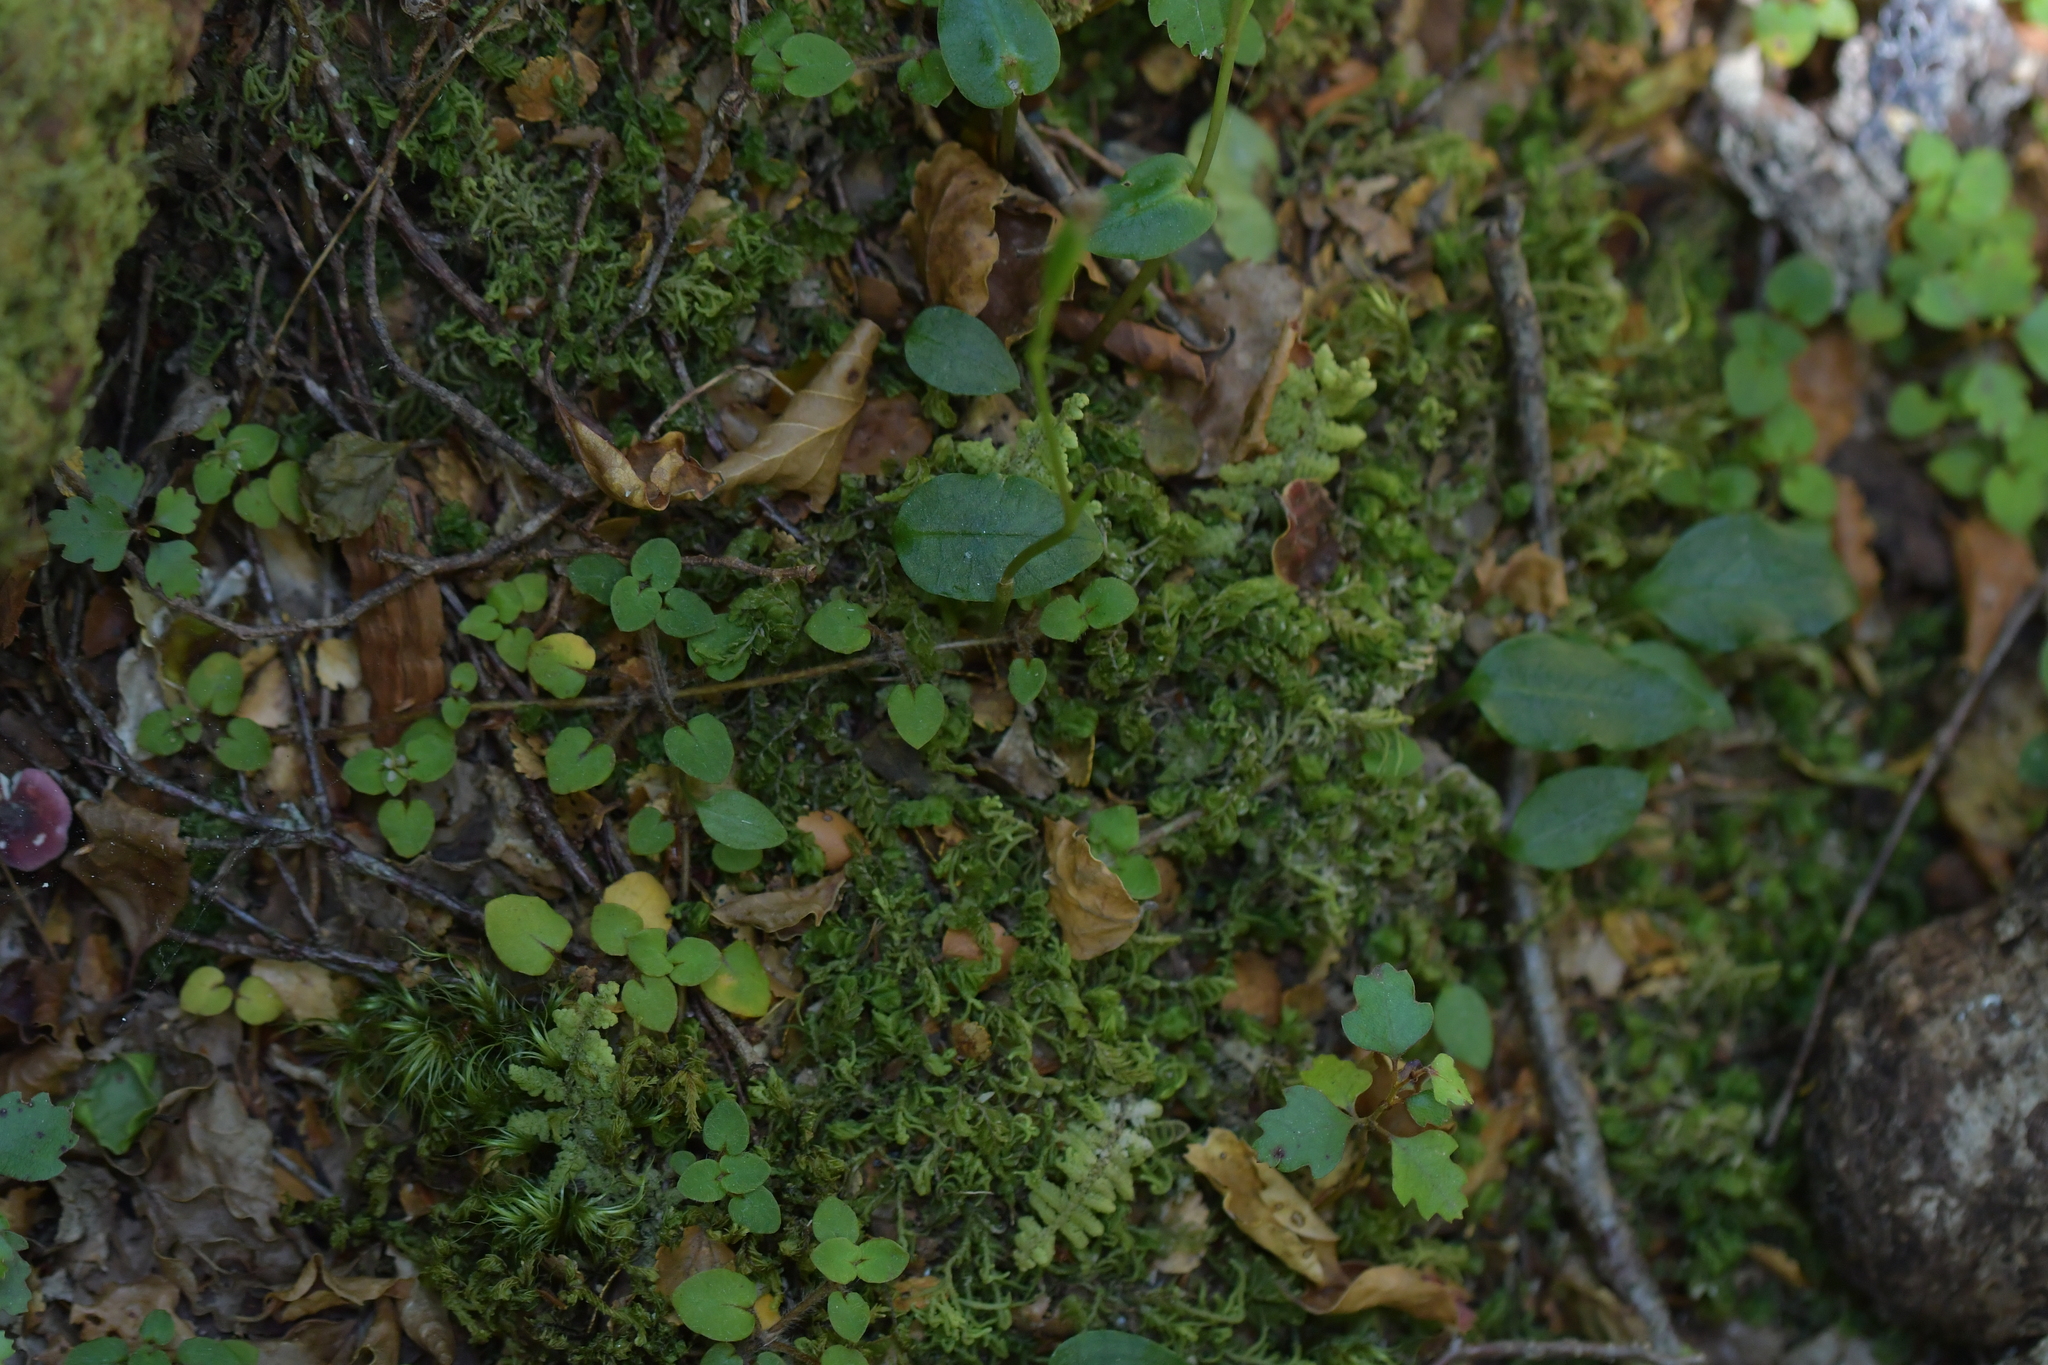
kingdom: Plantae
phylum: Tracheophyta
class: Liliopsida
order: Asparagales
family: Orchidaceae
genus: Adenochilus
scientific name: Adenochilus gracilis
